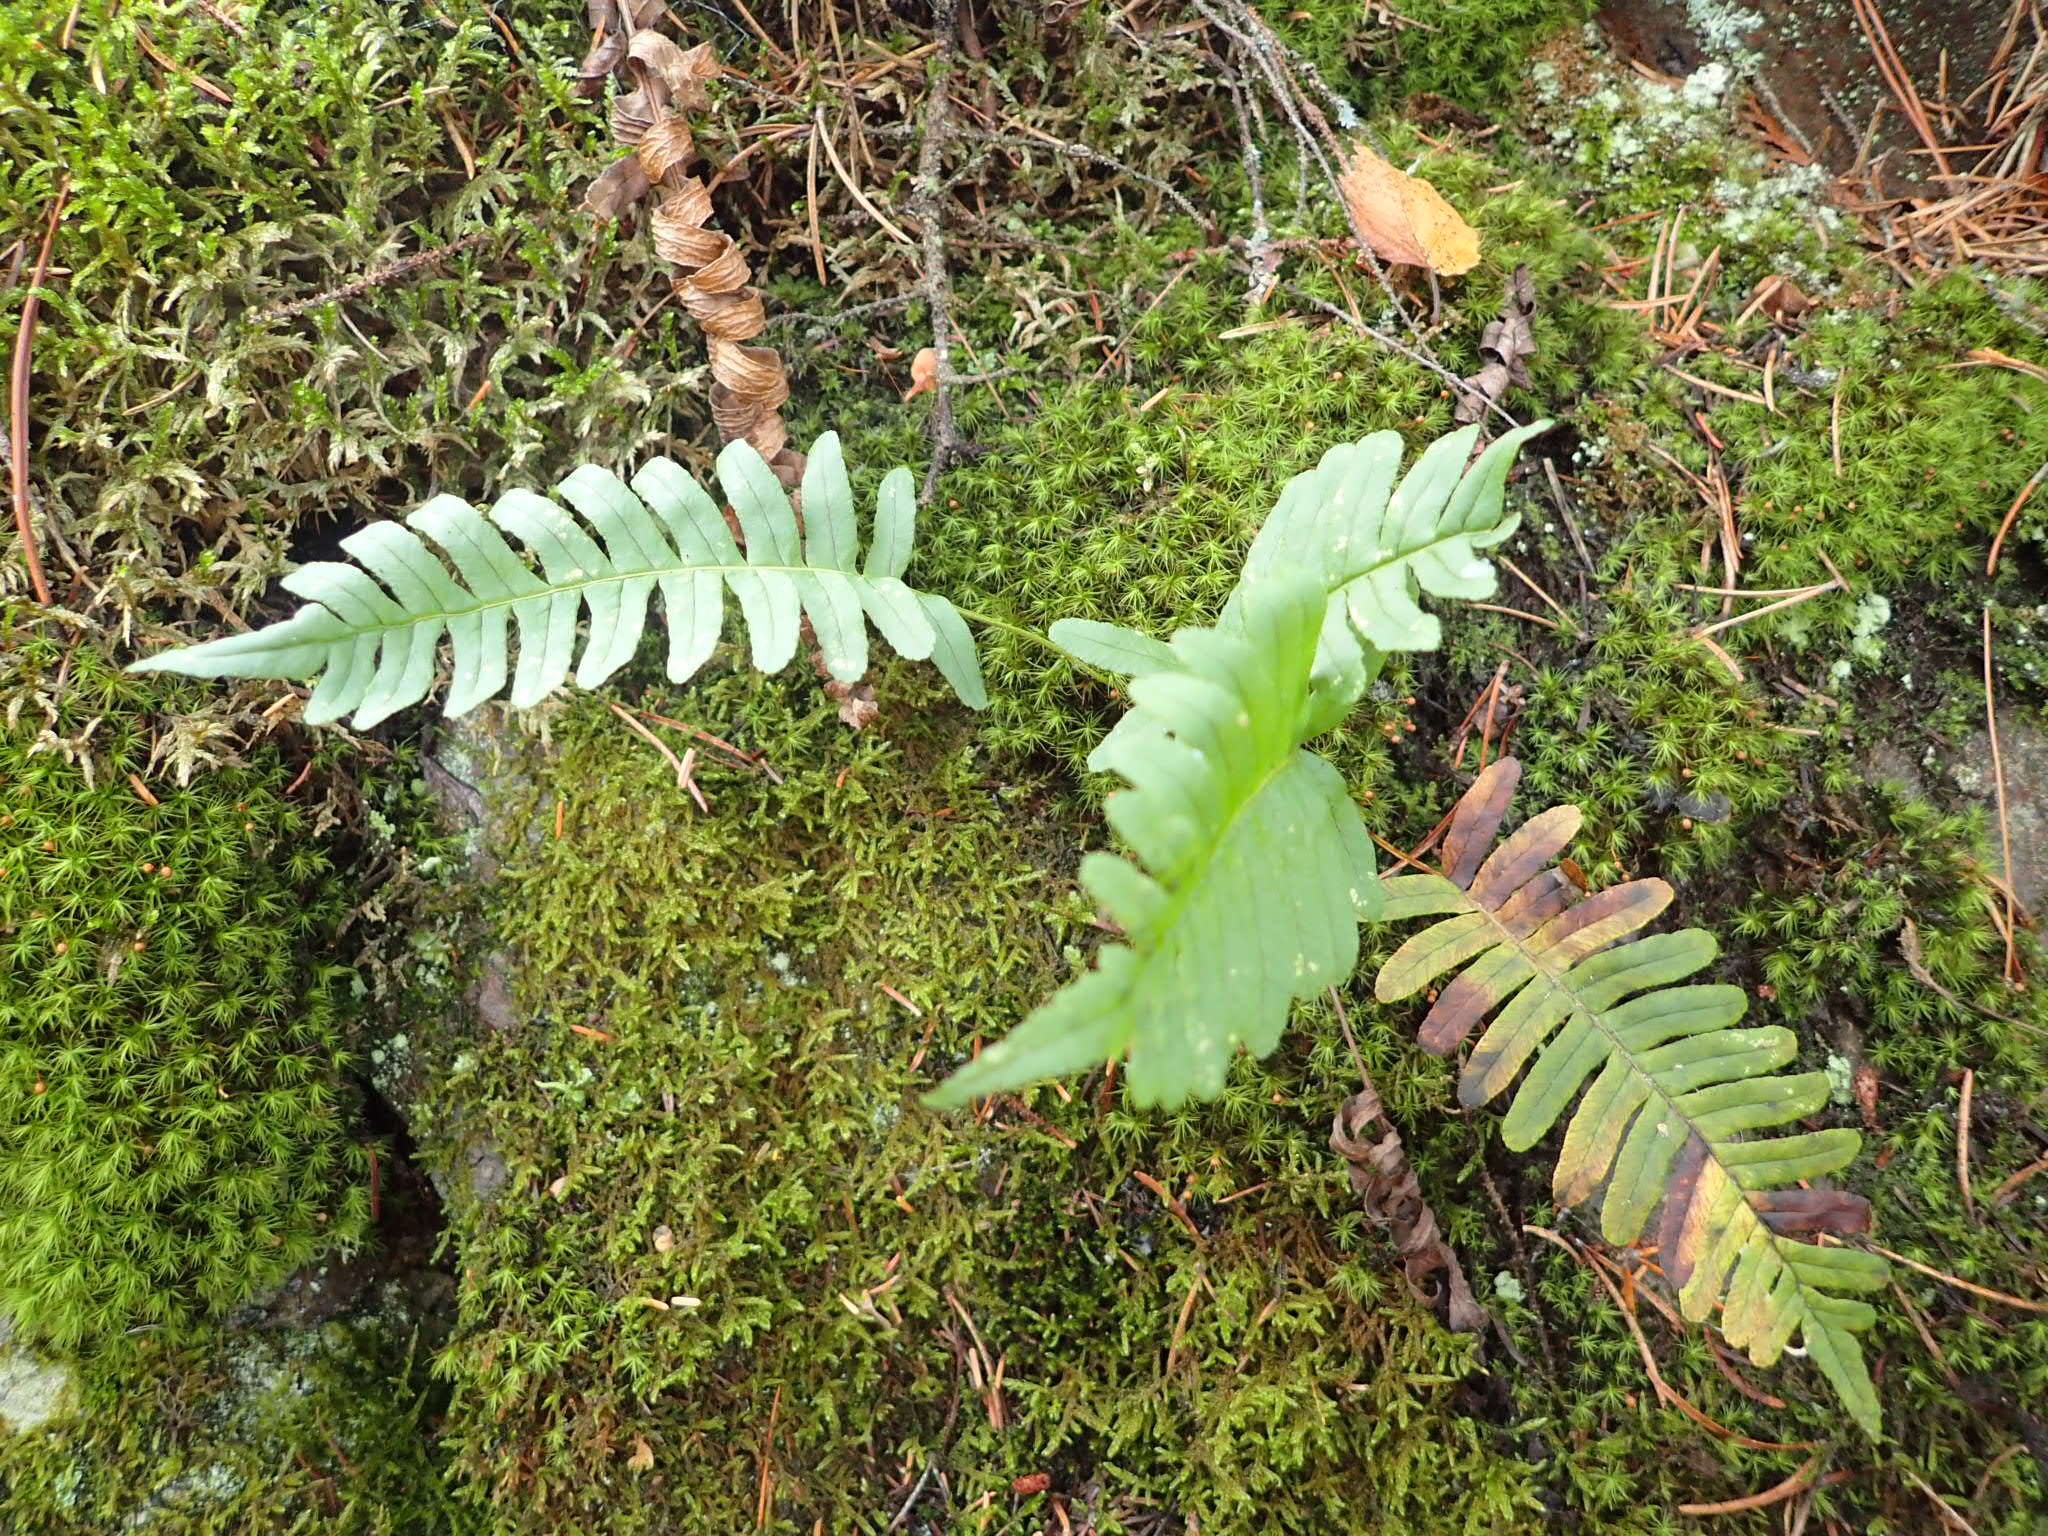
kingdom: Plantae
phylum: Tracheophyta
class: Polypodiopsida
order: Polypodiales
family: Polypodiaceae
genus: Polypodium
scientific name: Polypodium virginianum
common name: American wall fern
